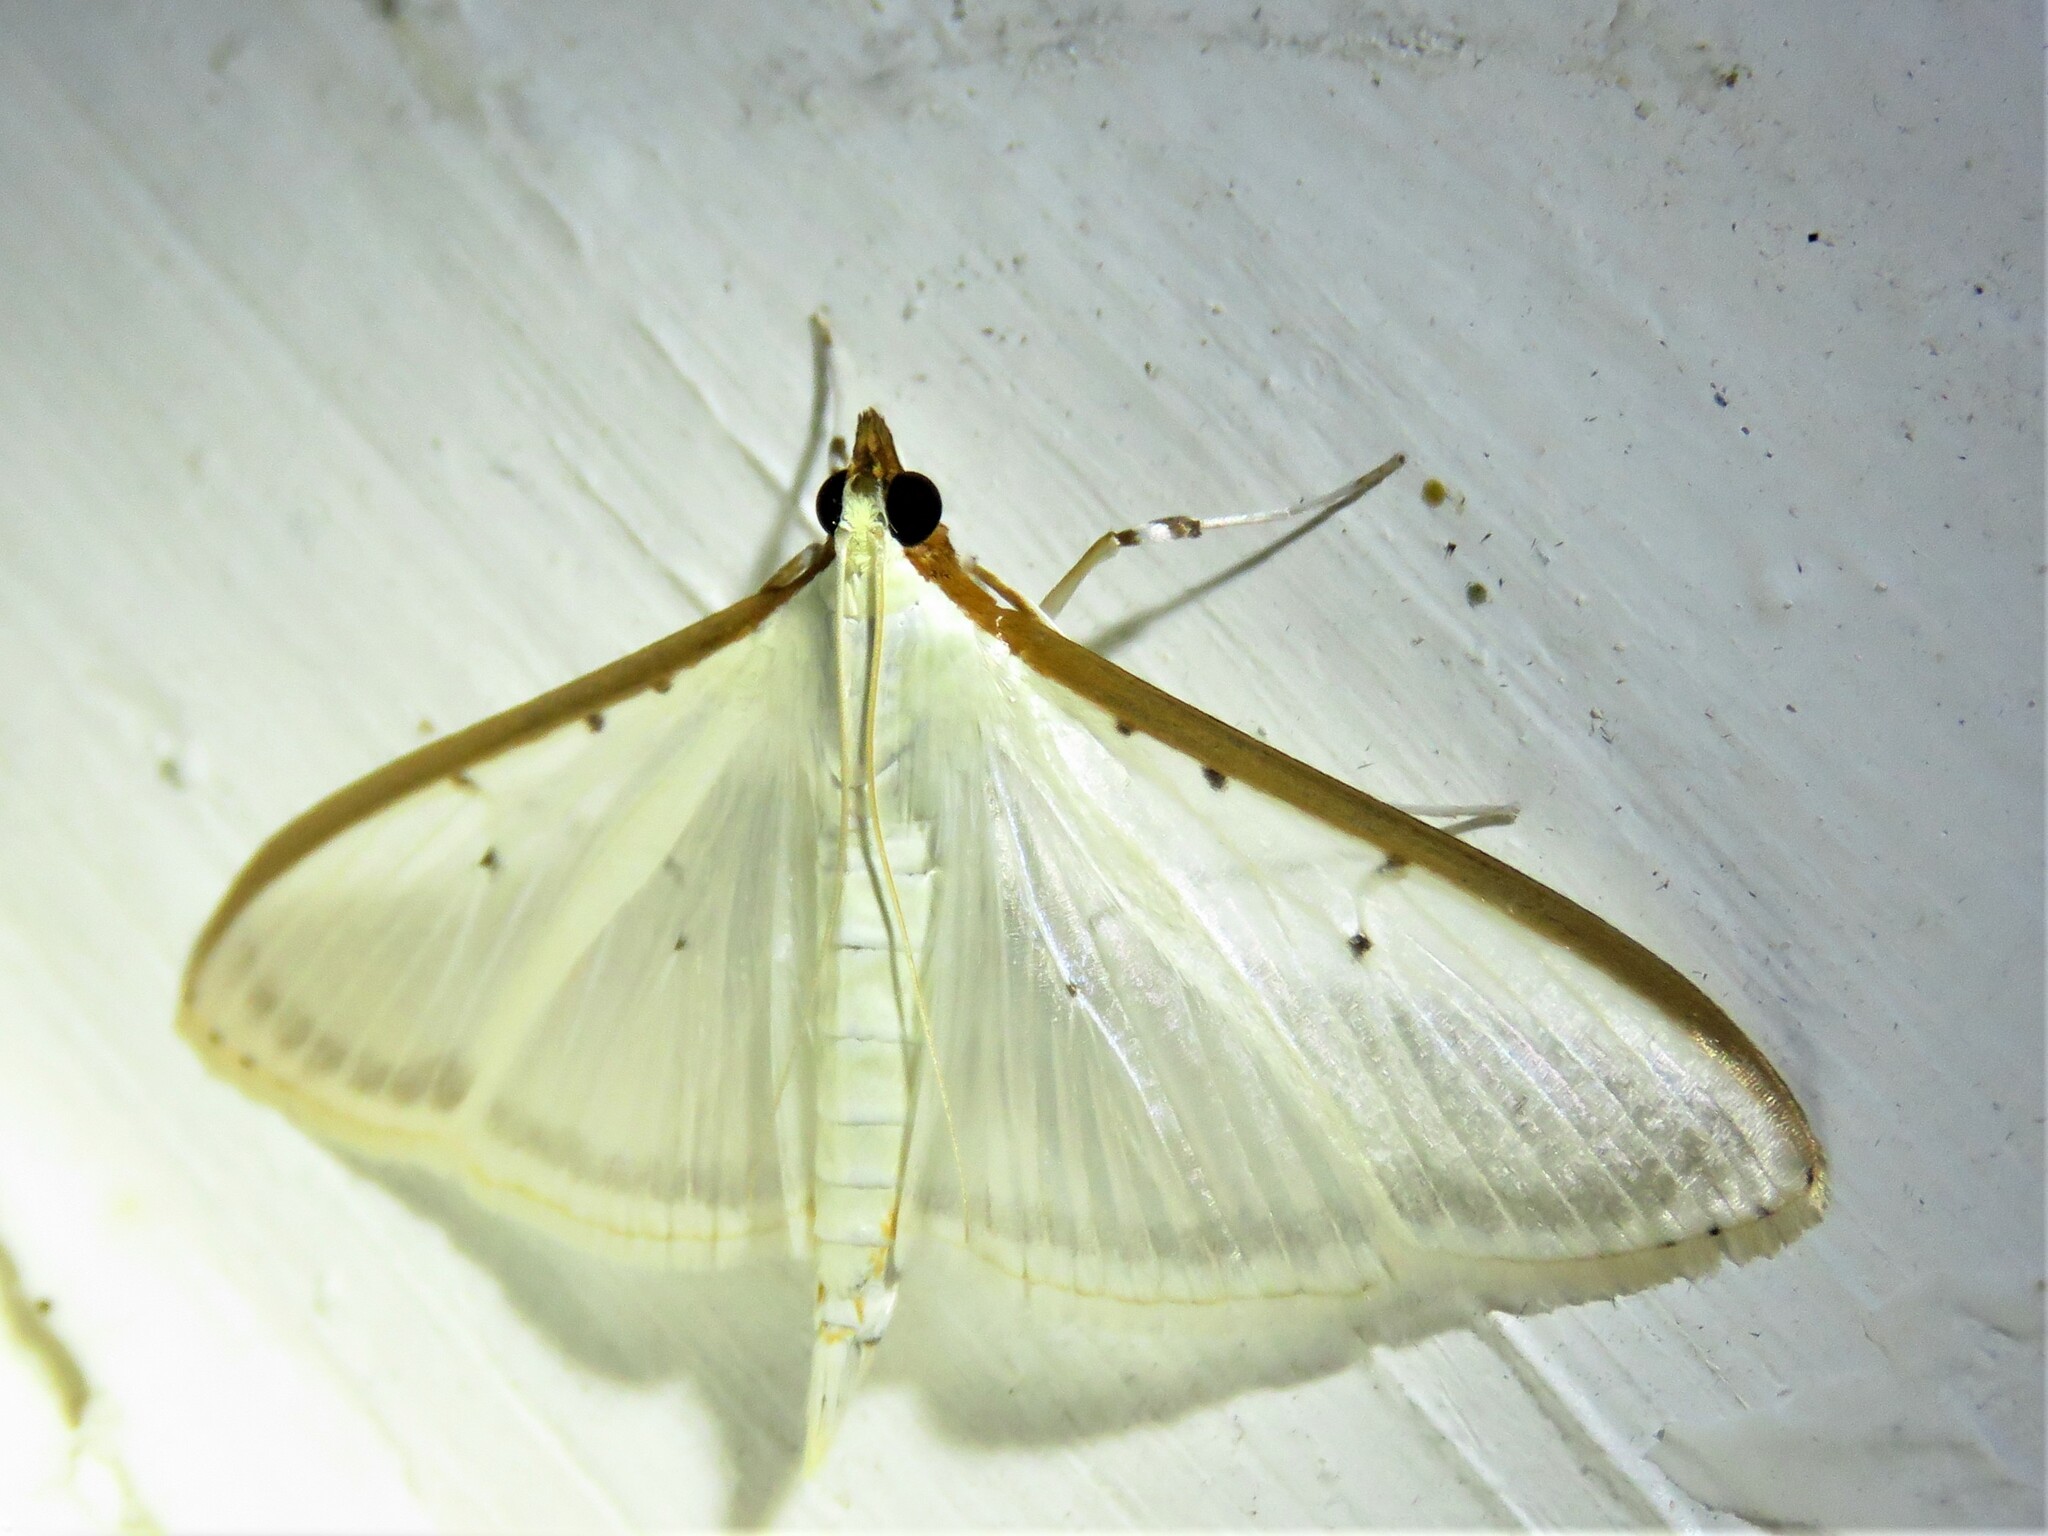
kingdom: Animalia
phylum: Arthropoda
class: Insecta
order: Lepidoptera
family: Crambidae
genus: Palpita
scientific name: Palpita quadristigmalis
